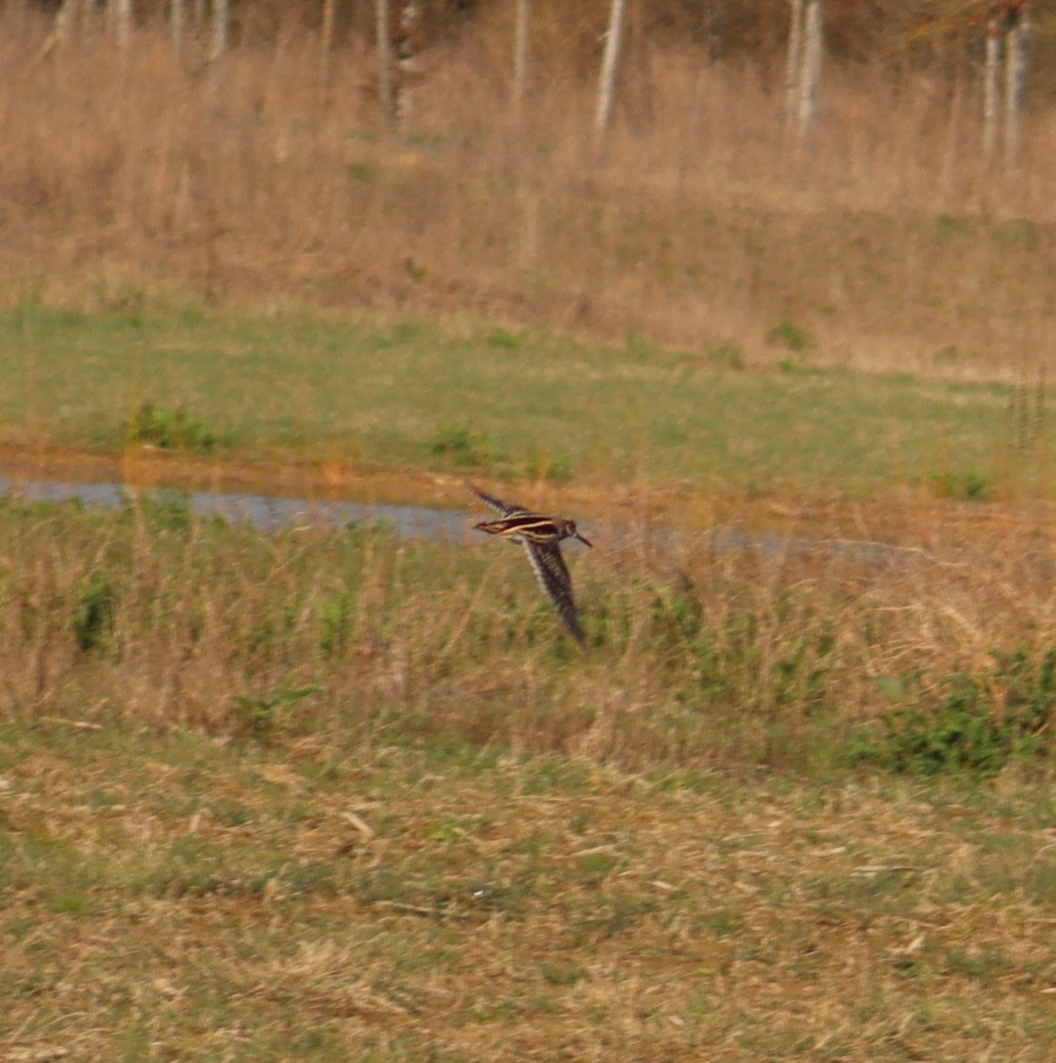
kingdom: Animalia
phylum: Chordata
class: Aves
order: Charadriiformes
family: Scolopacidae
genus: Lymnocryptes
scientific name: Lymnocryptes minimus
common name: Jack snipe
